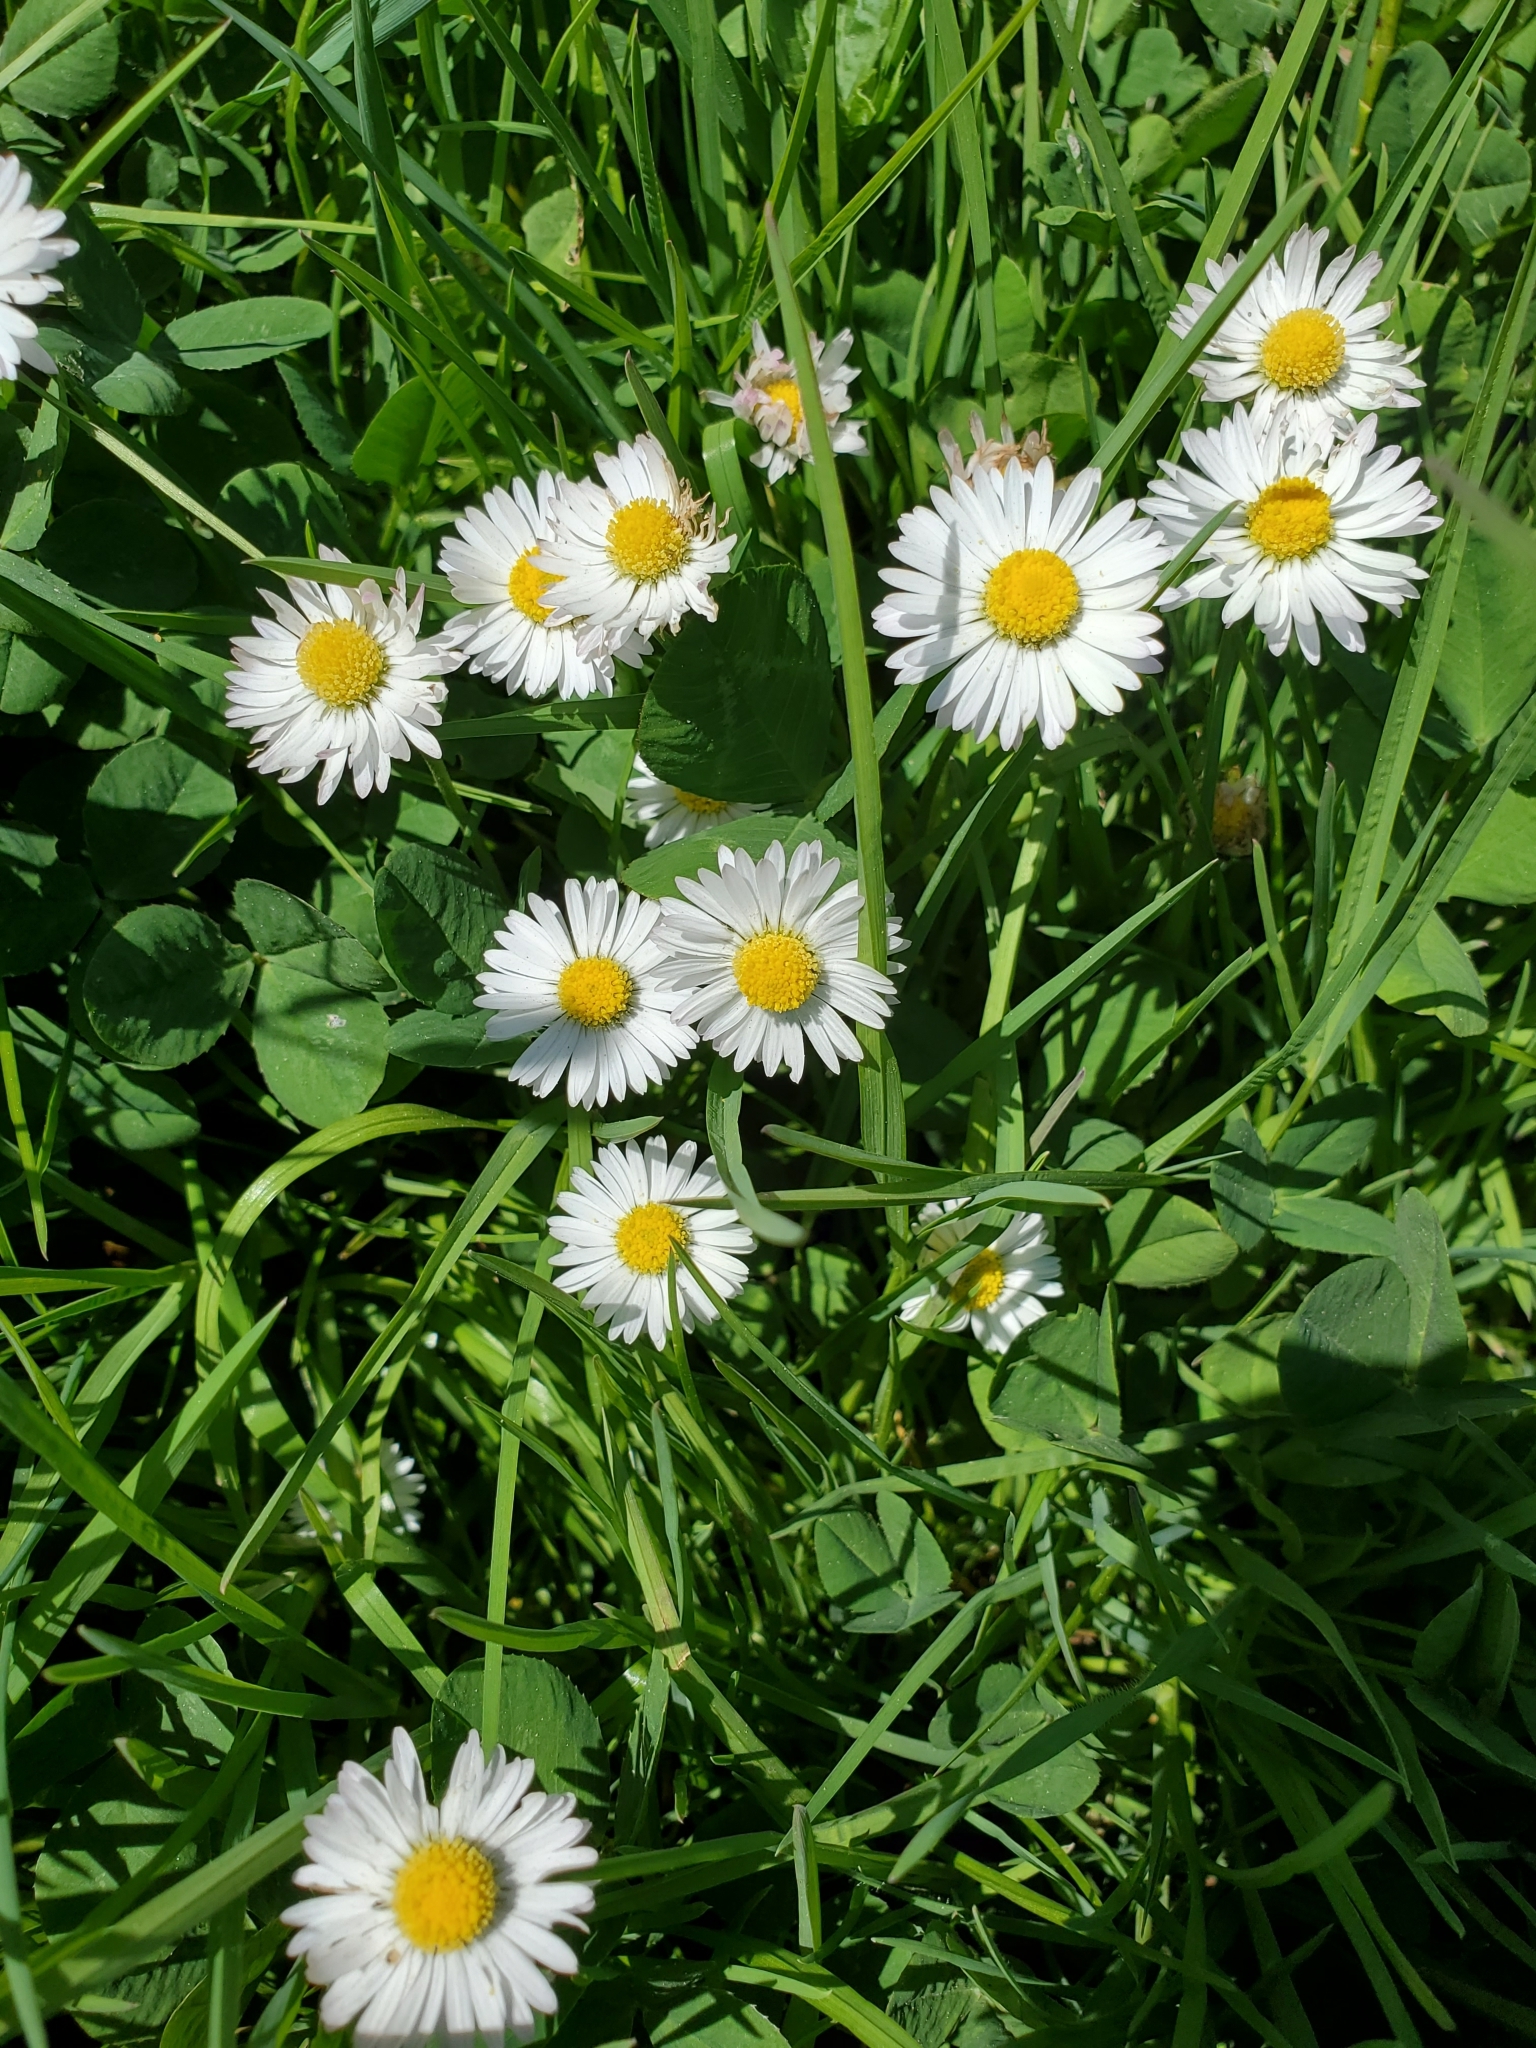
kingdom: Plantae
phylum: Tracheophyta
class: Magnoliopsida
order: Asterales
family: Asteraceae
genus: Bellis
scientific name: Bellis perennis
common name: Lawndaisy
